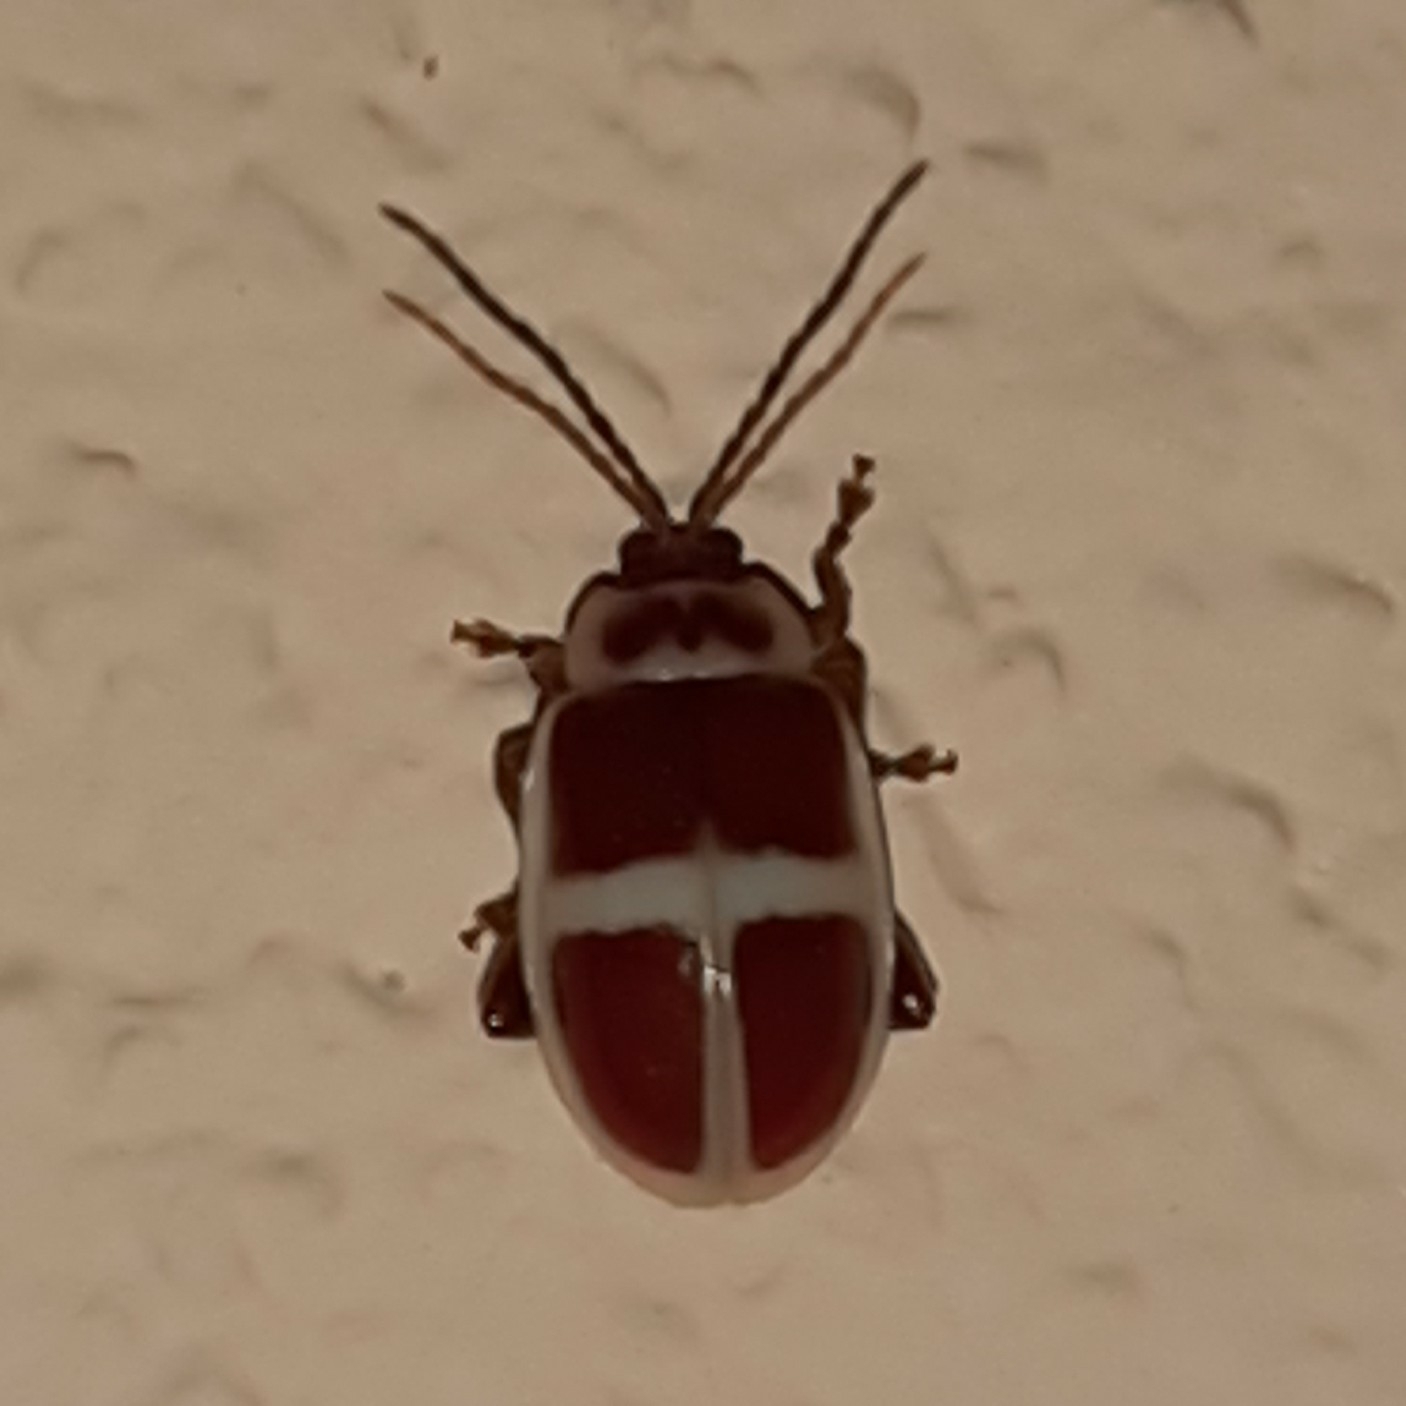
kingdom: Animalia
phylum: Arthropoda
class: Insecta
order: Coleoptera
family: Chrysomelidae
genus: Asphaera
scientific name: Asphaera discicollis
